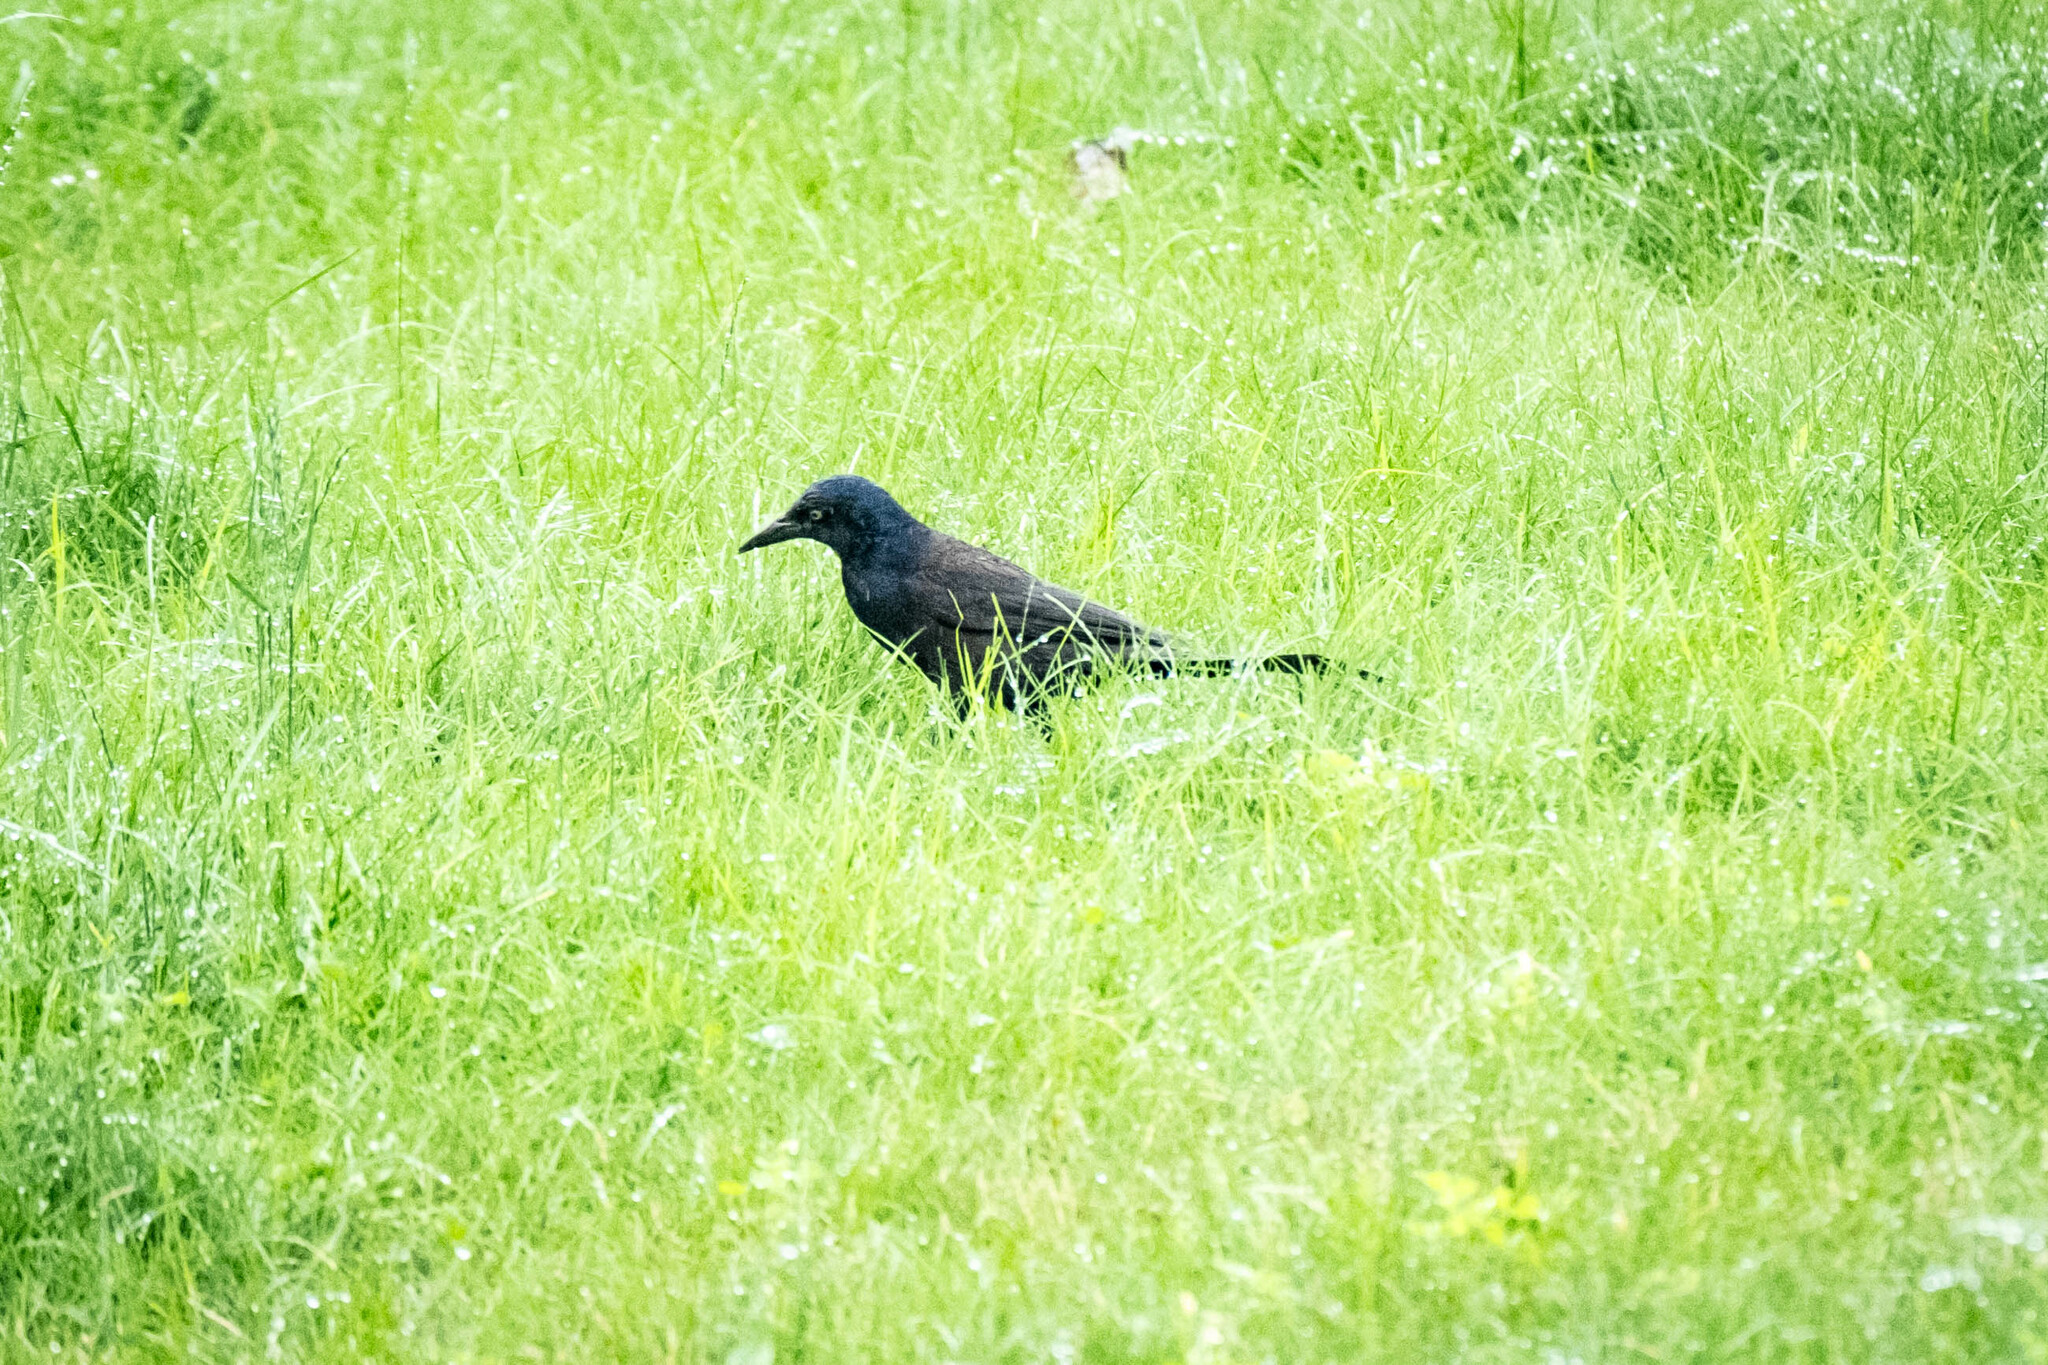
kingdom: Animalia
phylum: Chordata
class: Aves
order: Passeriformes
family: Icteridae
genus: Quiscalus
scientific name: Quiscalus quiscula
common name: Common grackle
